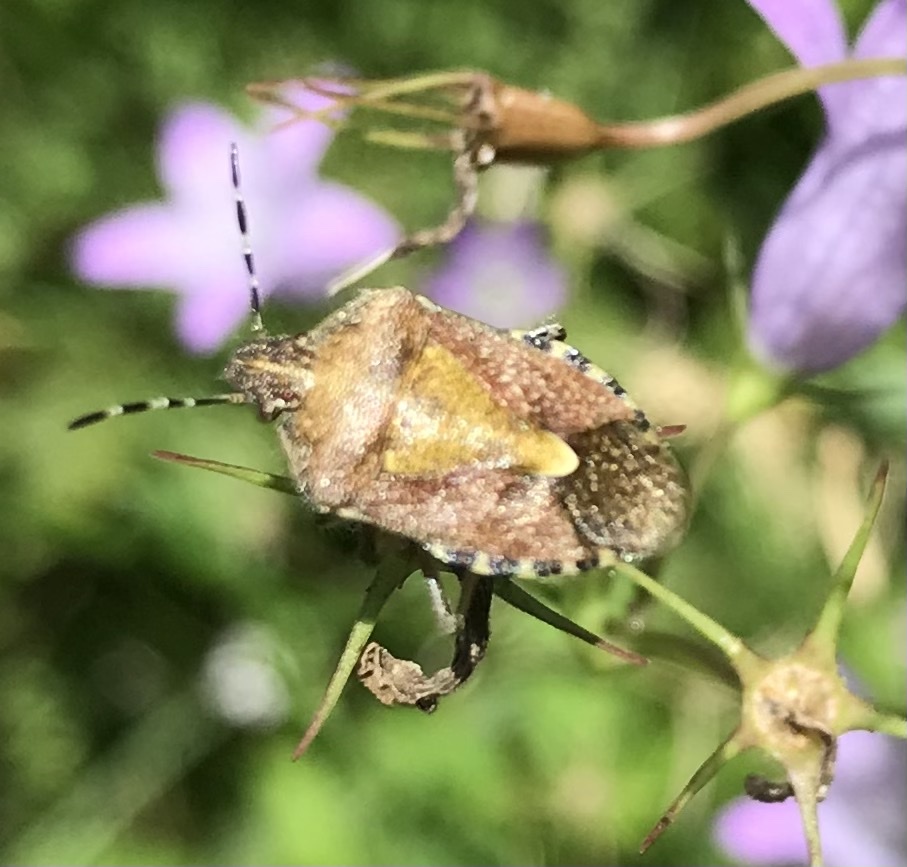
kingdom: Animalia
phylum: Arthropoda
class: Insecta
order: Hemiptera
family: Pentatomidae
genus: Dolycoris
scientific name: Dolycoris baccarum
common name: Sloe bug
